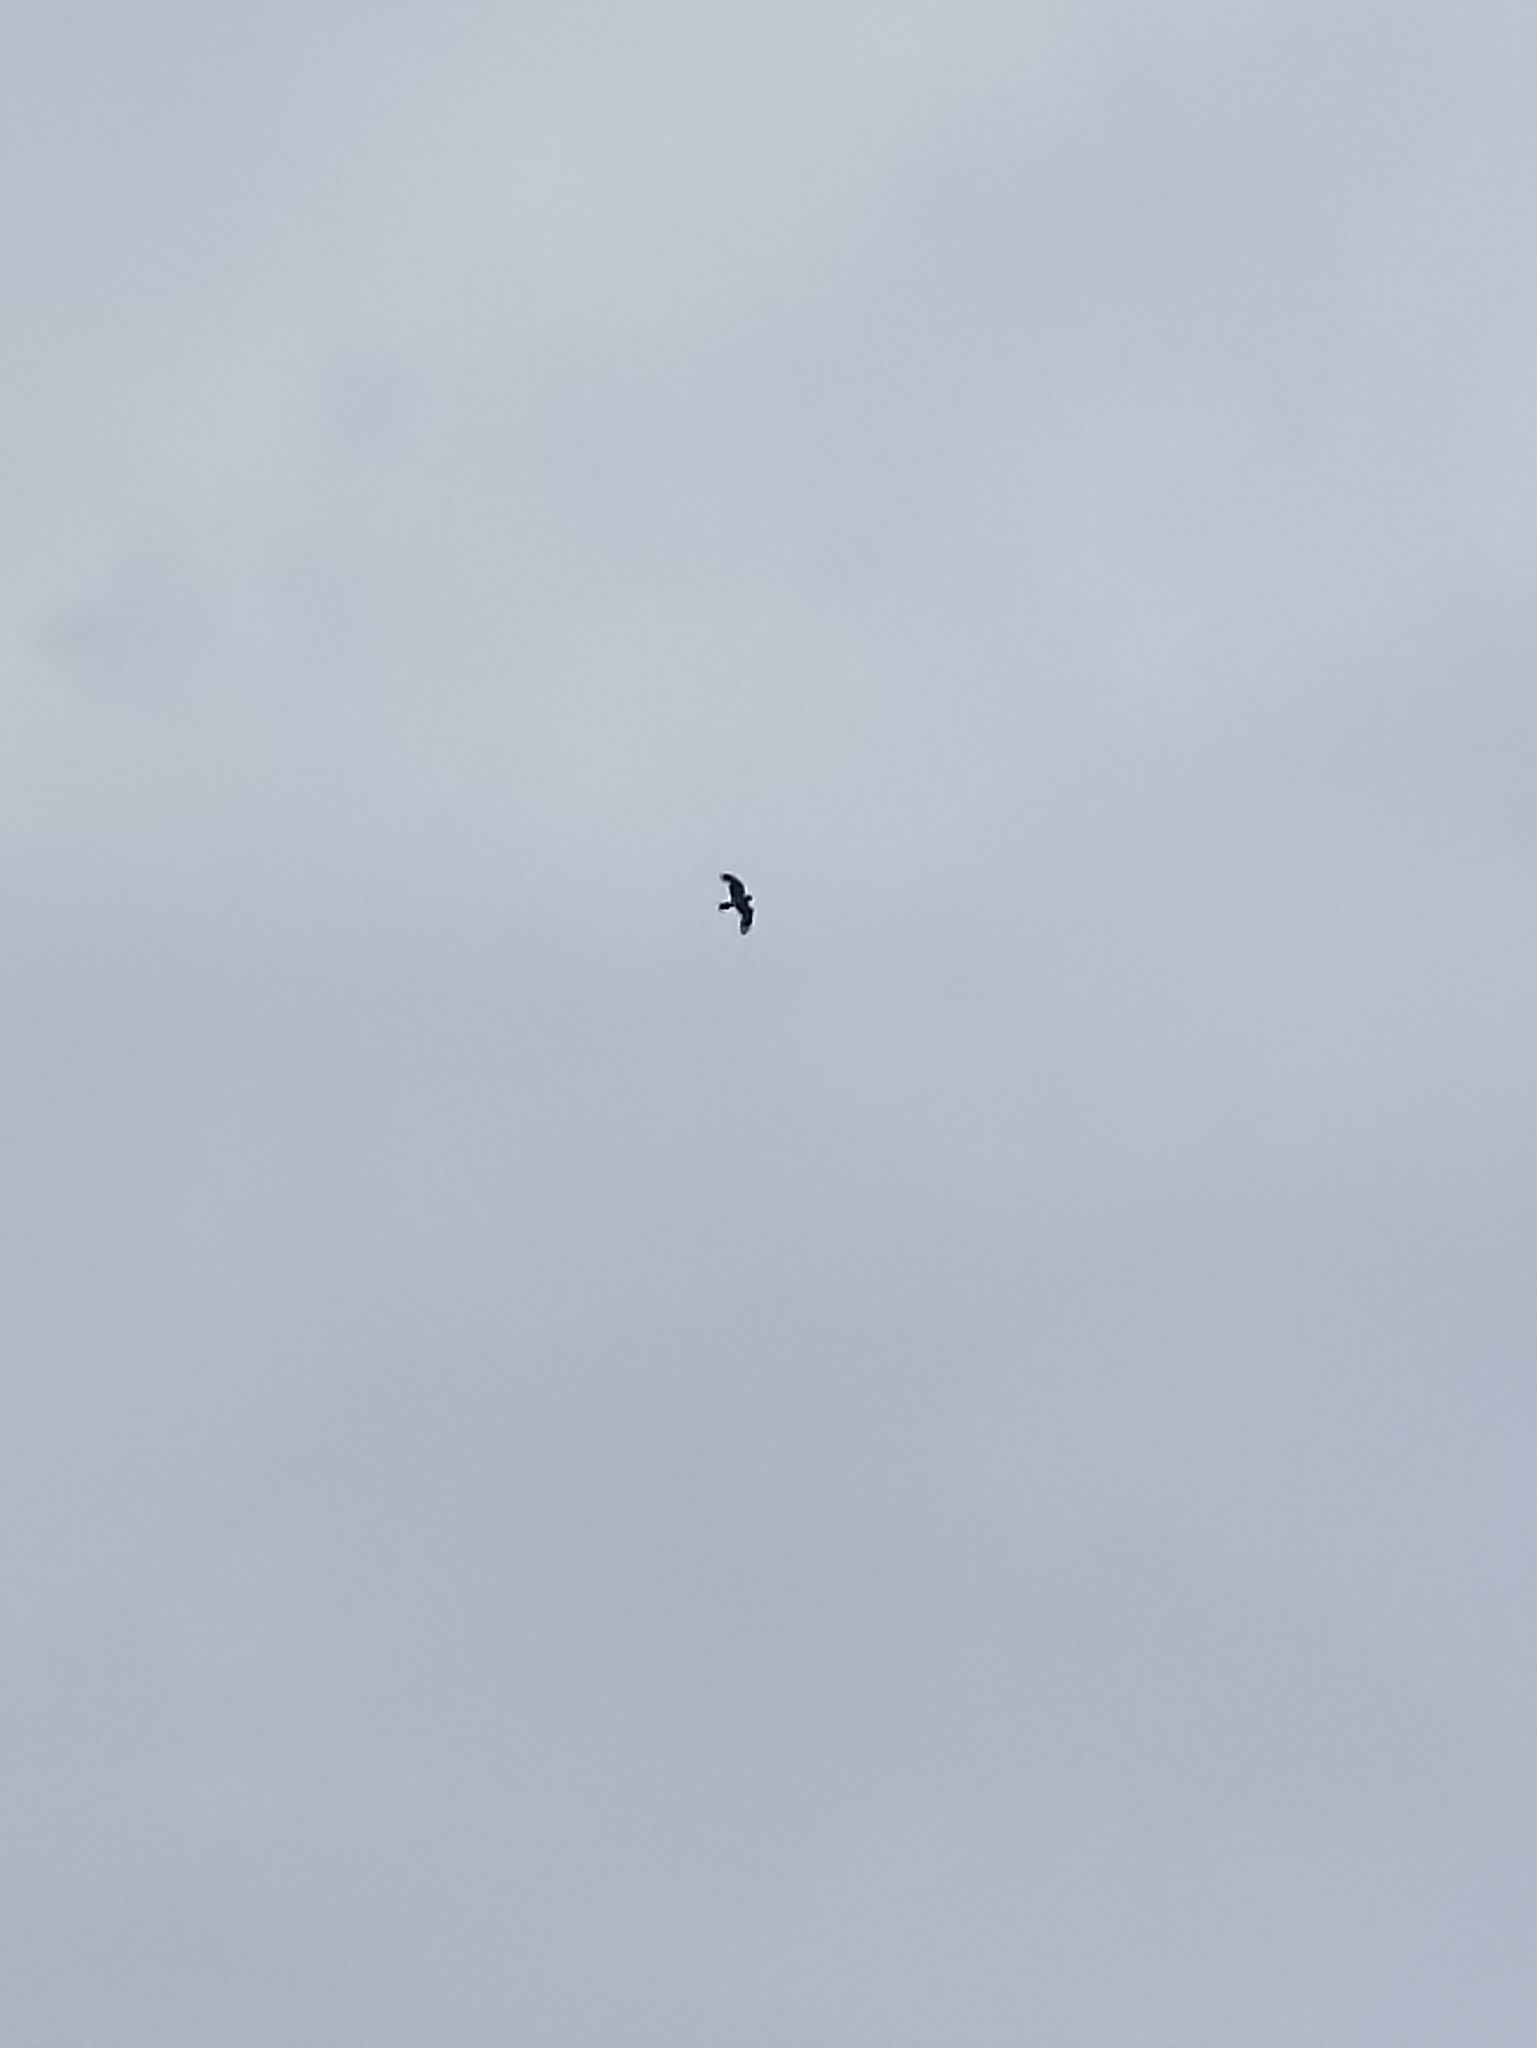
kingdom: Animalia
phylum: Chordata
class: Aves
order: Accipitriformes
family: Accipitridae
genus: Circus
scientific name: Circus approximans
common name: Swamp harrier
